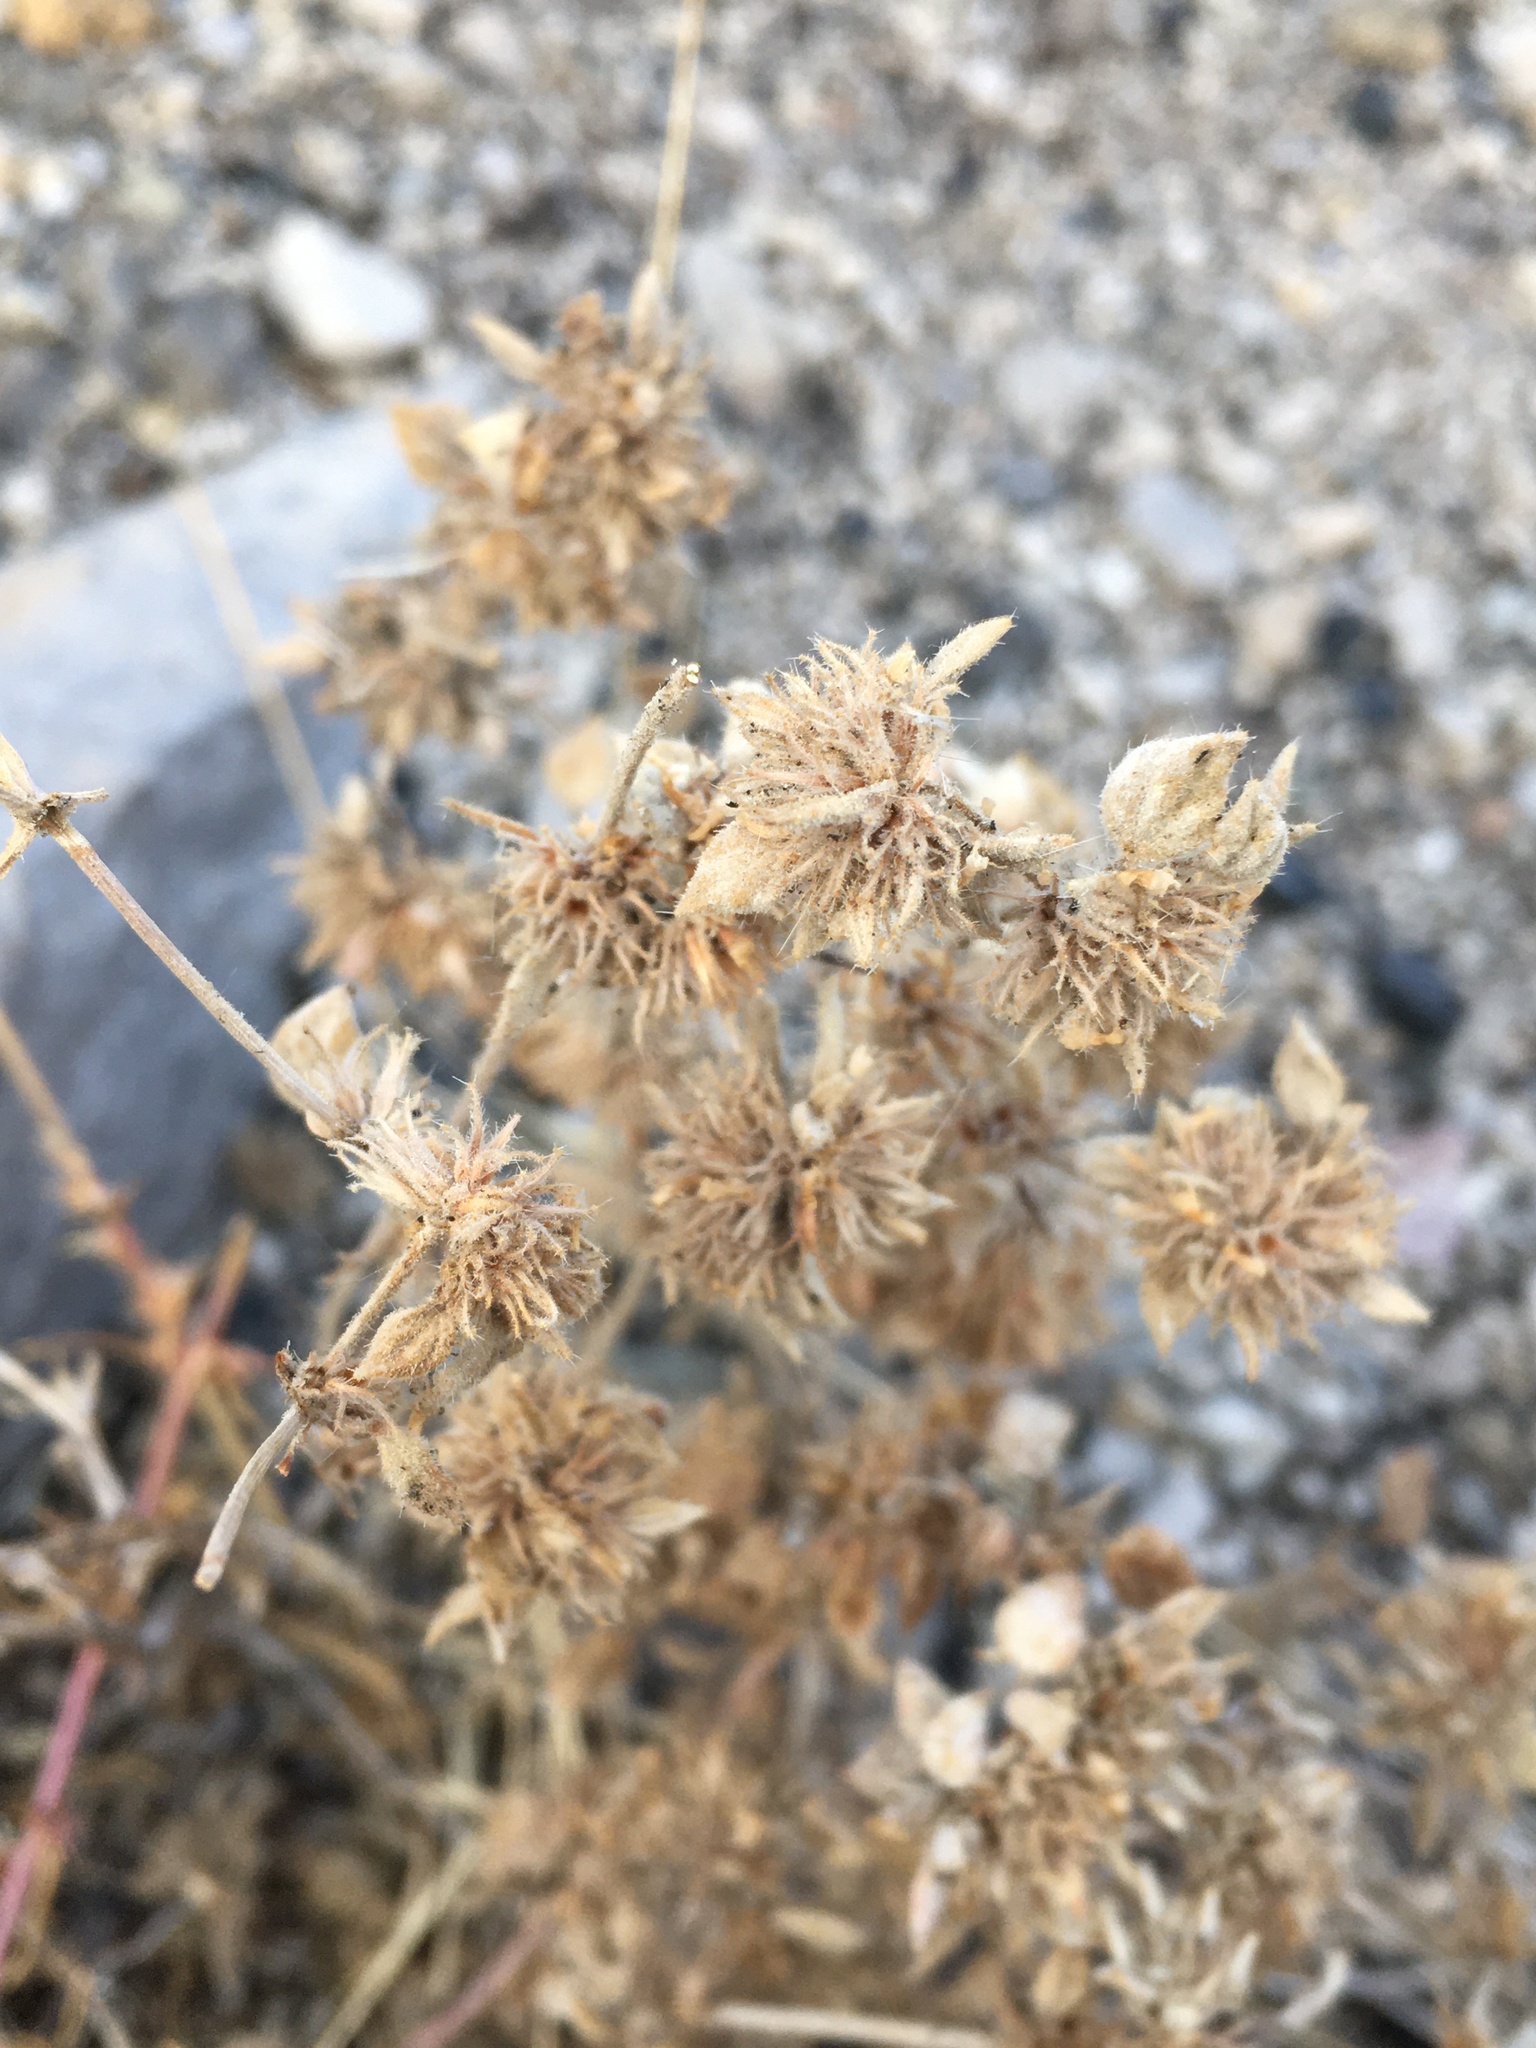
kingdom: Plantae
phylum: Tracheophyta
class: Magnoliopsida
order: Boraginales
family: Ehretiaceae
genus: Tiquilia
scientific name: Tiquilia nuttallii
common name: Rosette tiquilia
